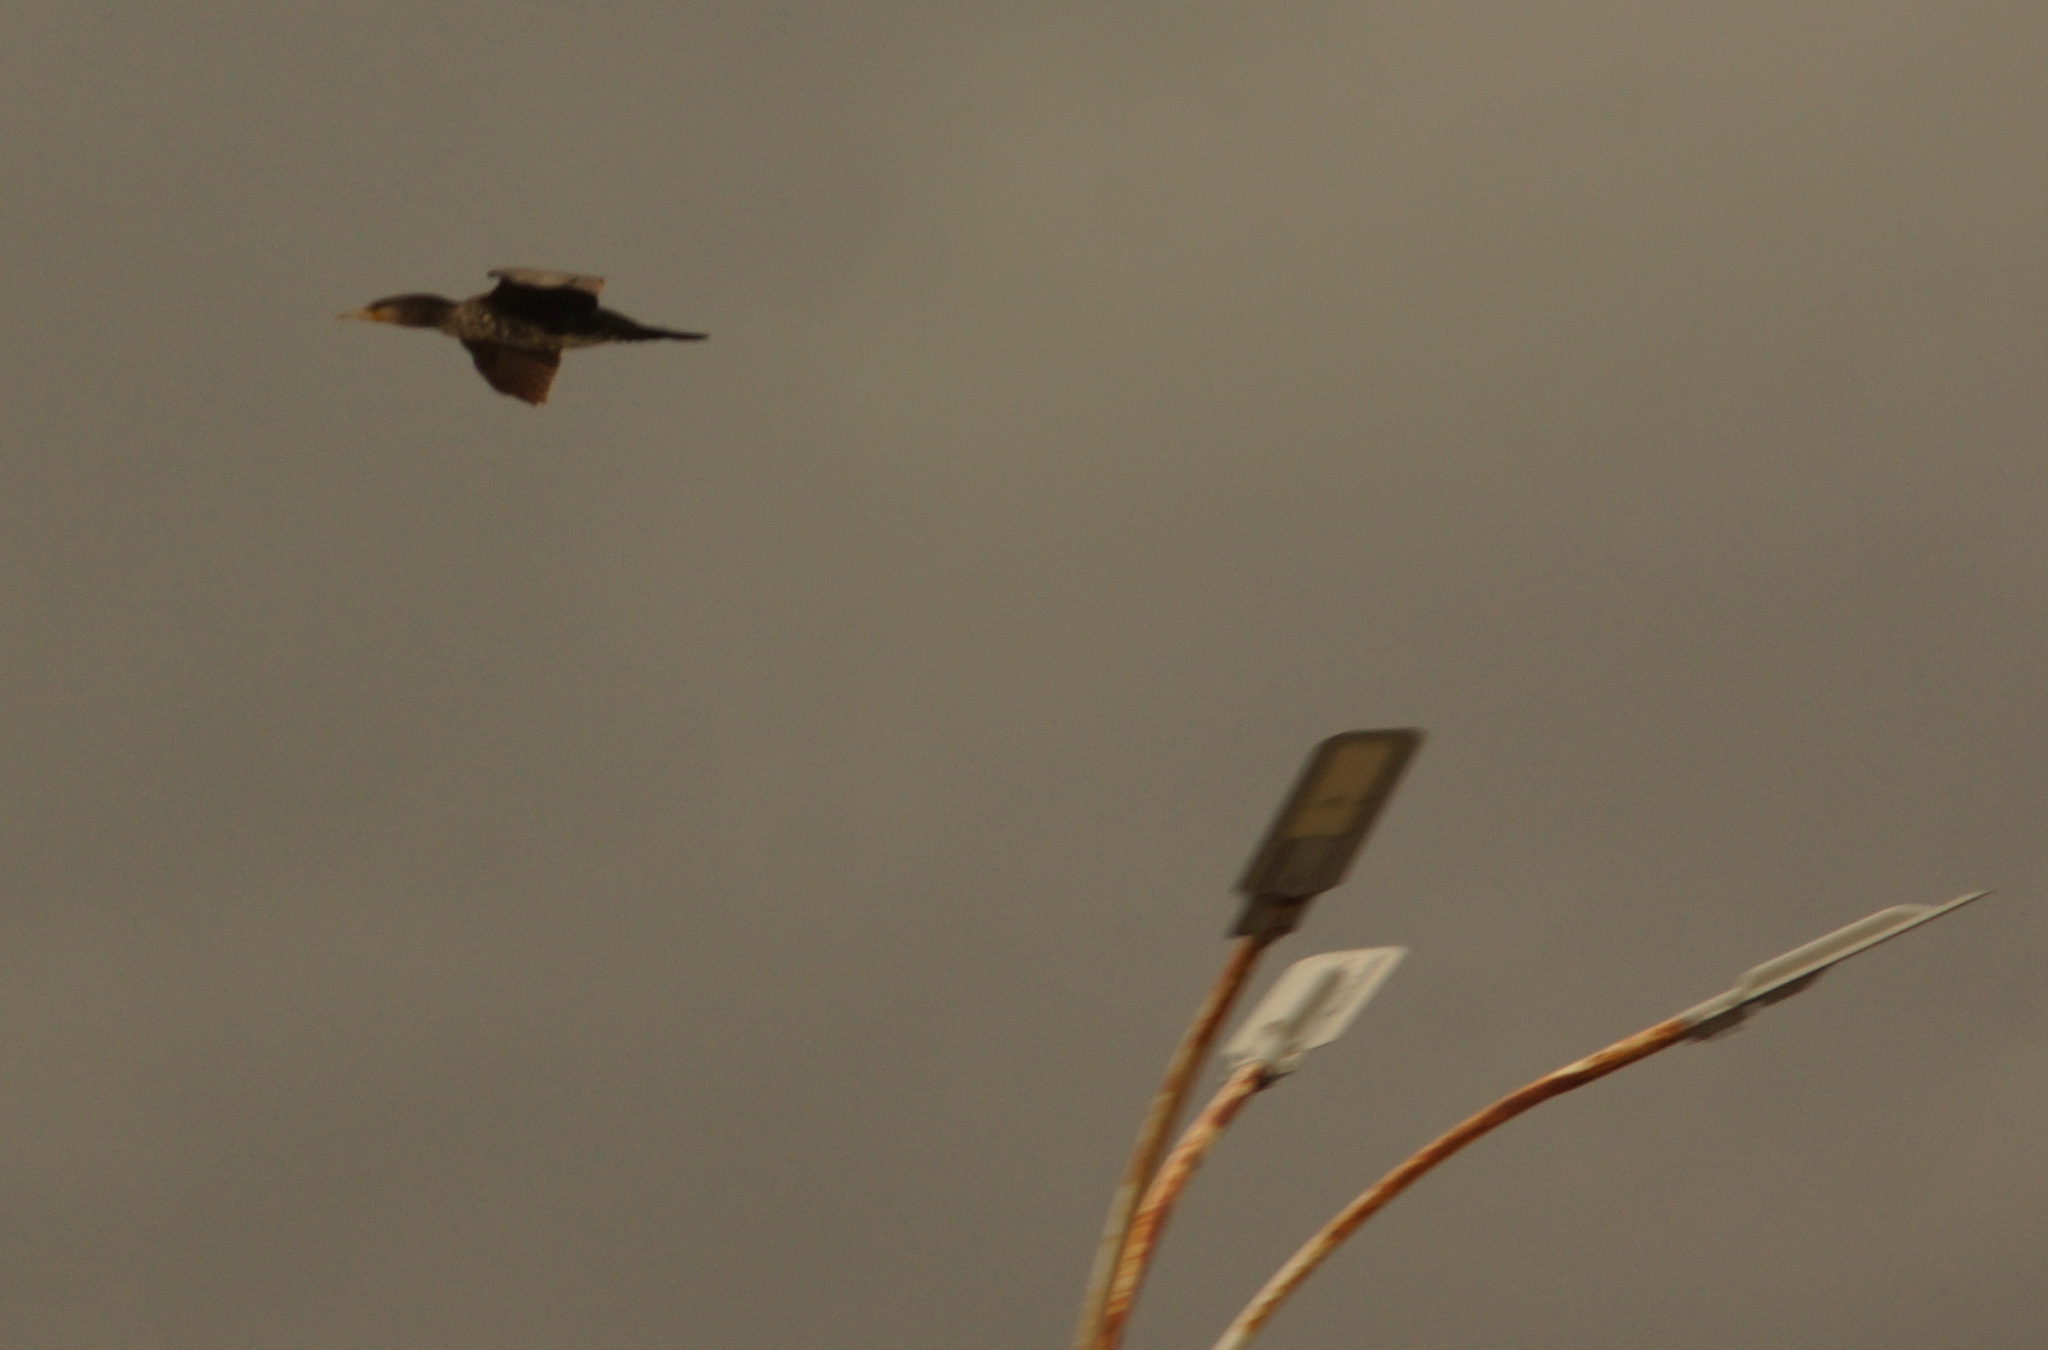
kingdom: Animalia
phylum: Chordata
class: Aves
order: Suliformes
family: Phalacrocoracidae
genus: Phalacrocorax
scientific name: Phalacrocorax carbo
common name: Great cormorant
